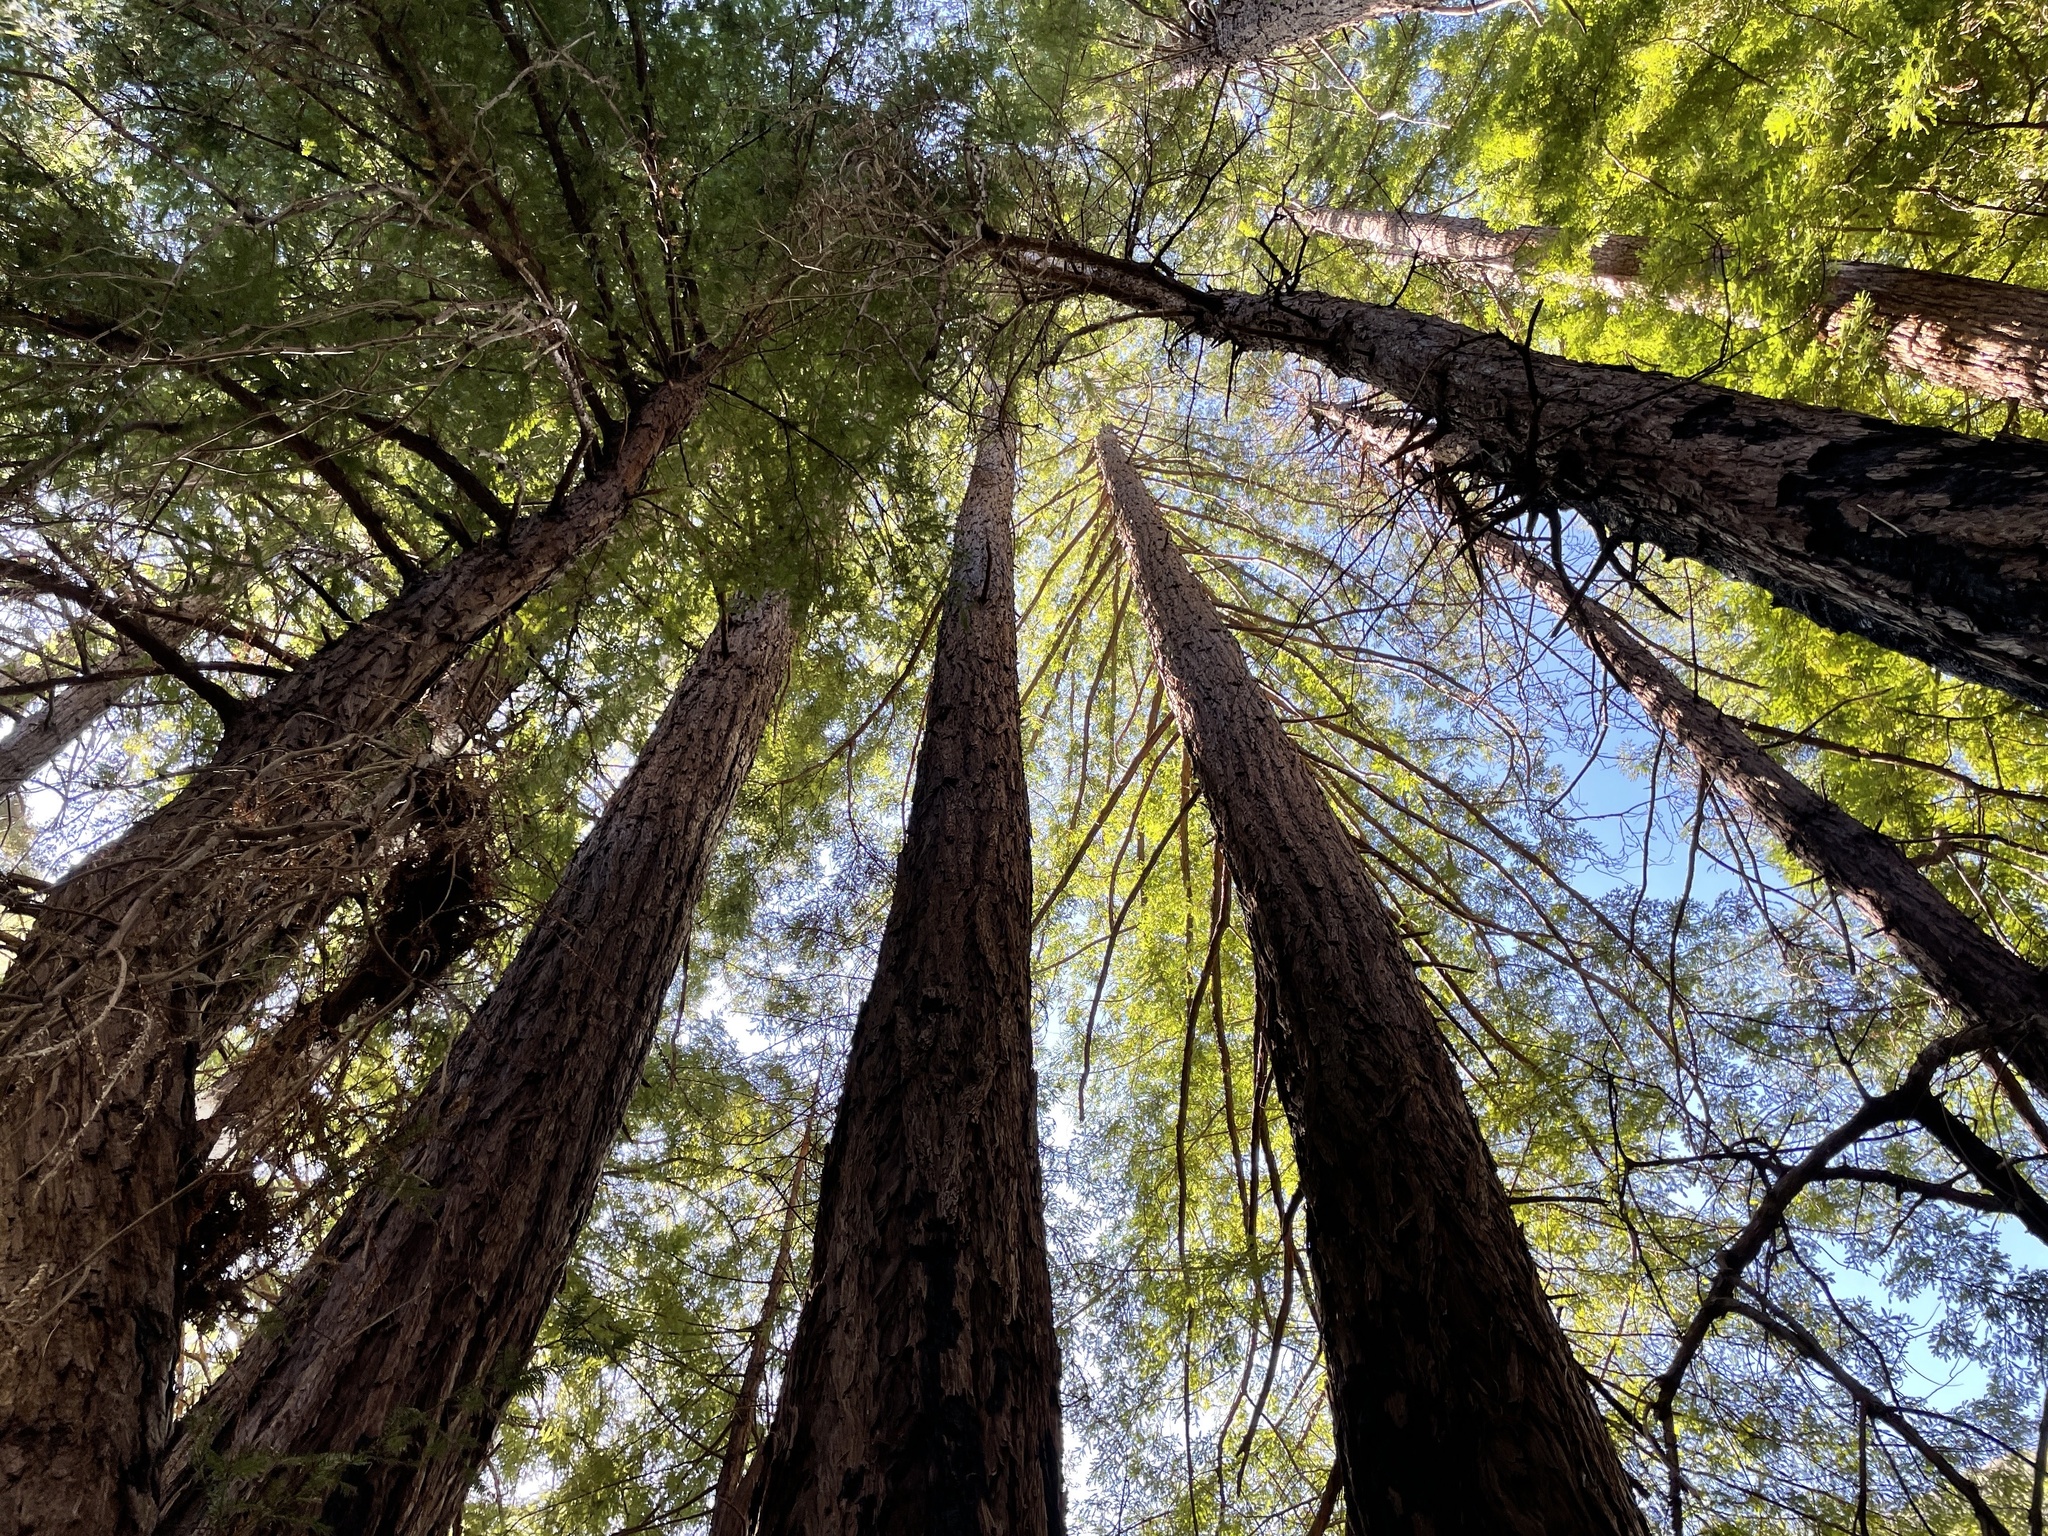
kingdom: Plantae
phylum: Tracheophyta
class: Pinopsida
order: Pinales
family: Cupressaceae
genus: Sequoia
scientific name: Sequoia sempervirens
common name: Coast redwood
